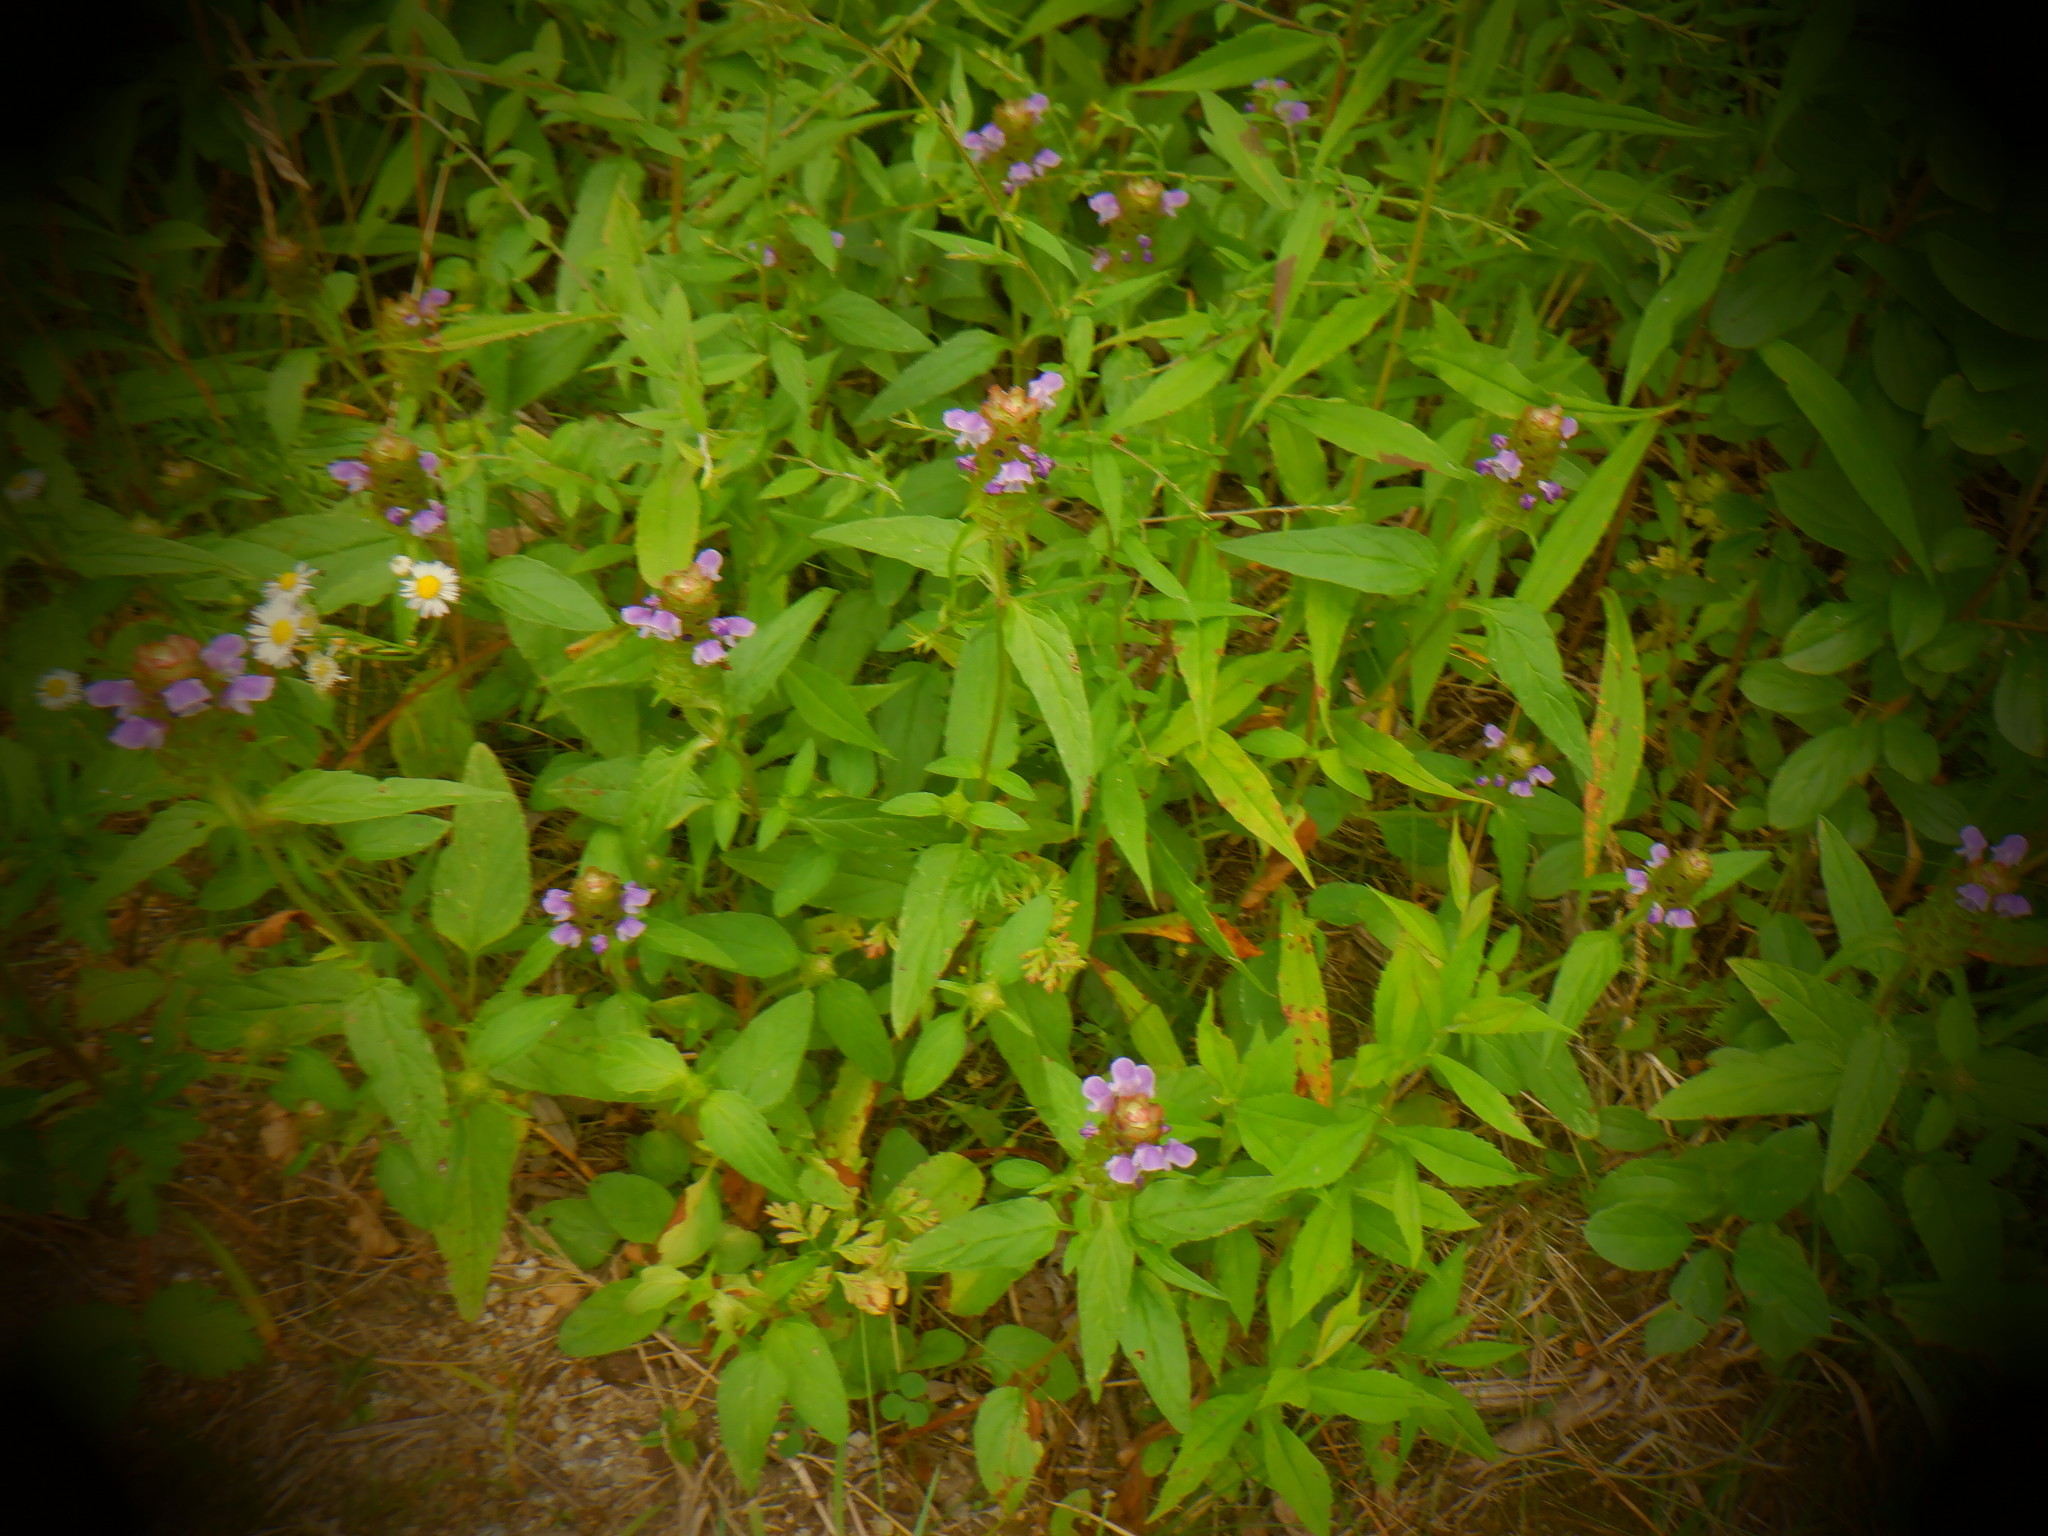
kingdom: Plantae
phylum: Tracheophyta
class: Magnoliopsida
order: Lamiales
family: Lamiaceae
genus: Prunella
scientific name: Prunella vulgaris
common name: Heal-all
